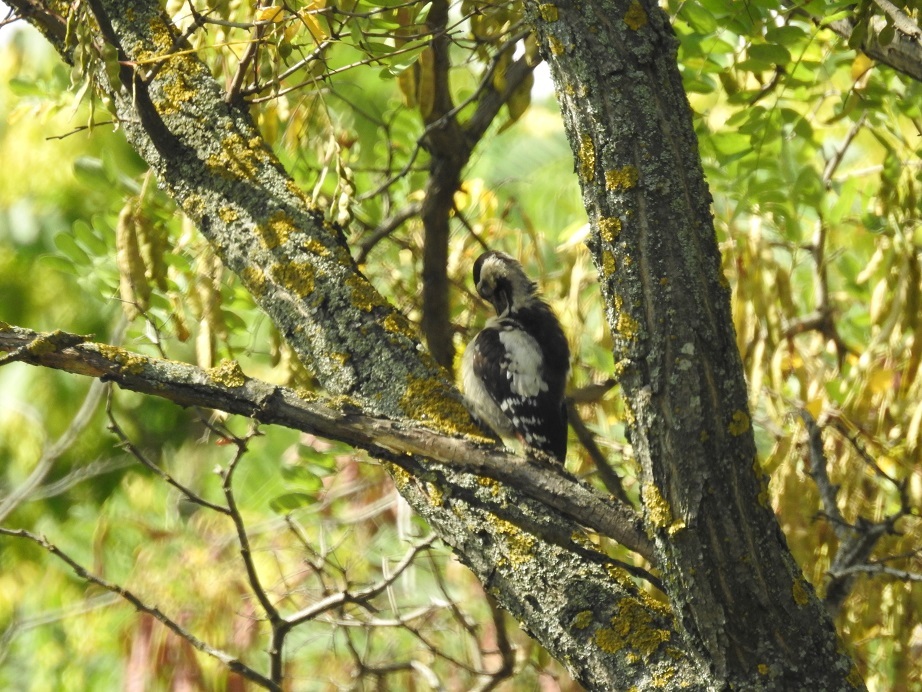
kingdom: Animalia
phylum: Chordata
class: Aves
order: Piciformes
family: Picidae
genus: Dendrocopos
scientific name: Dendrocopos syriacus
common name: Syrian woodpecker
